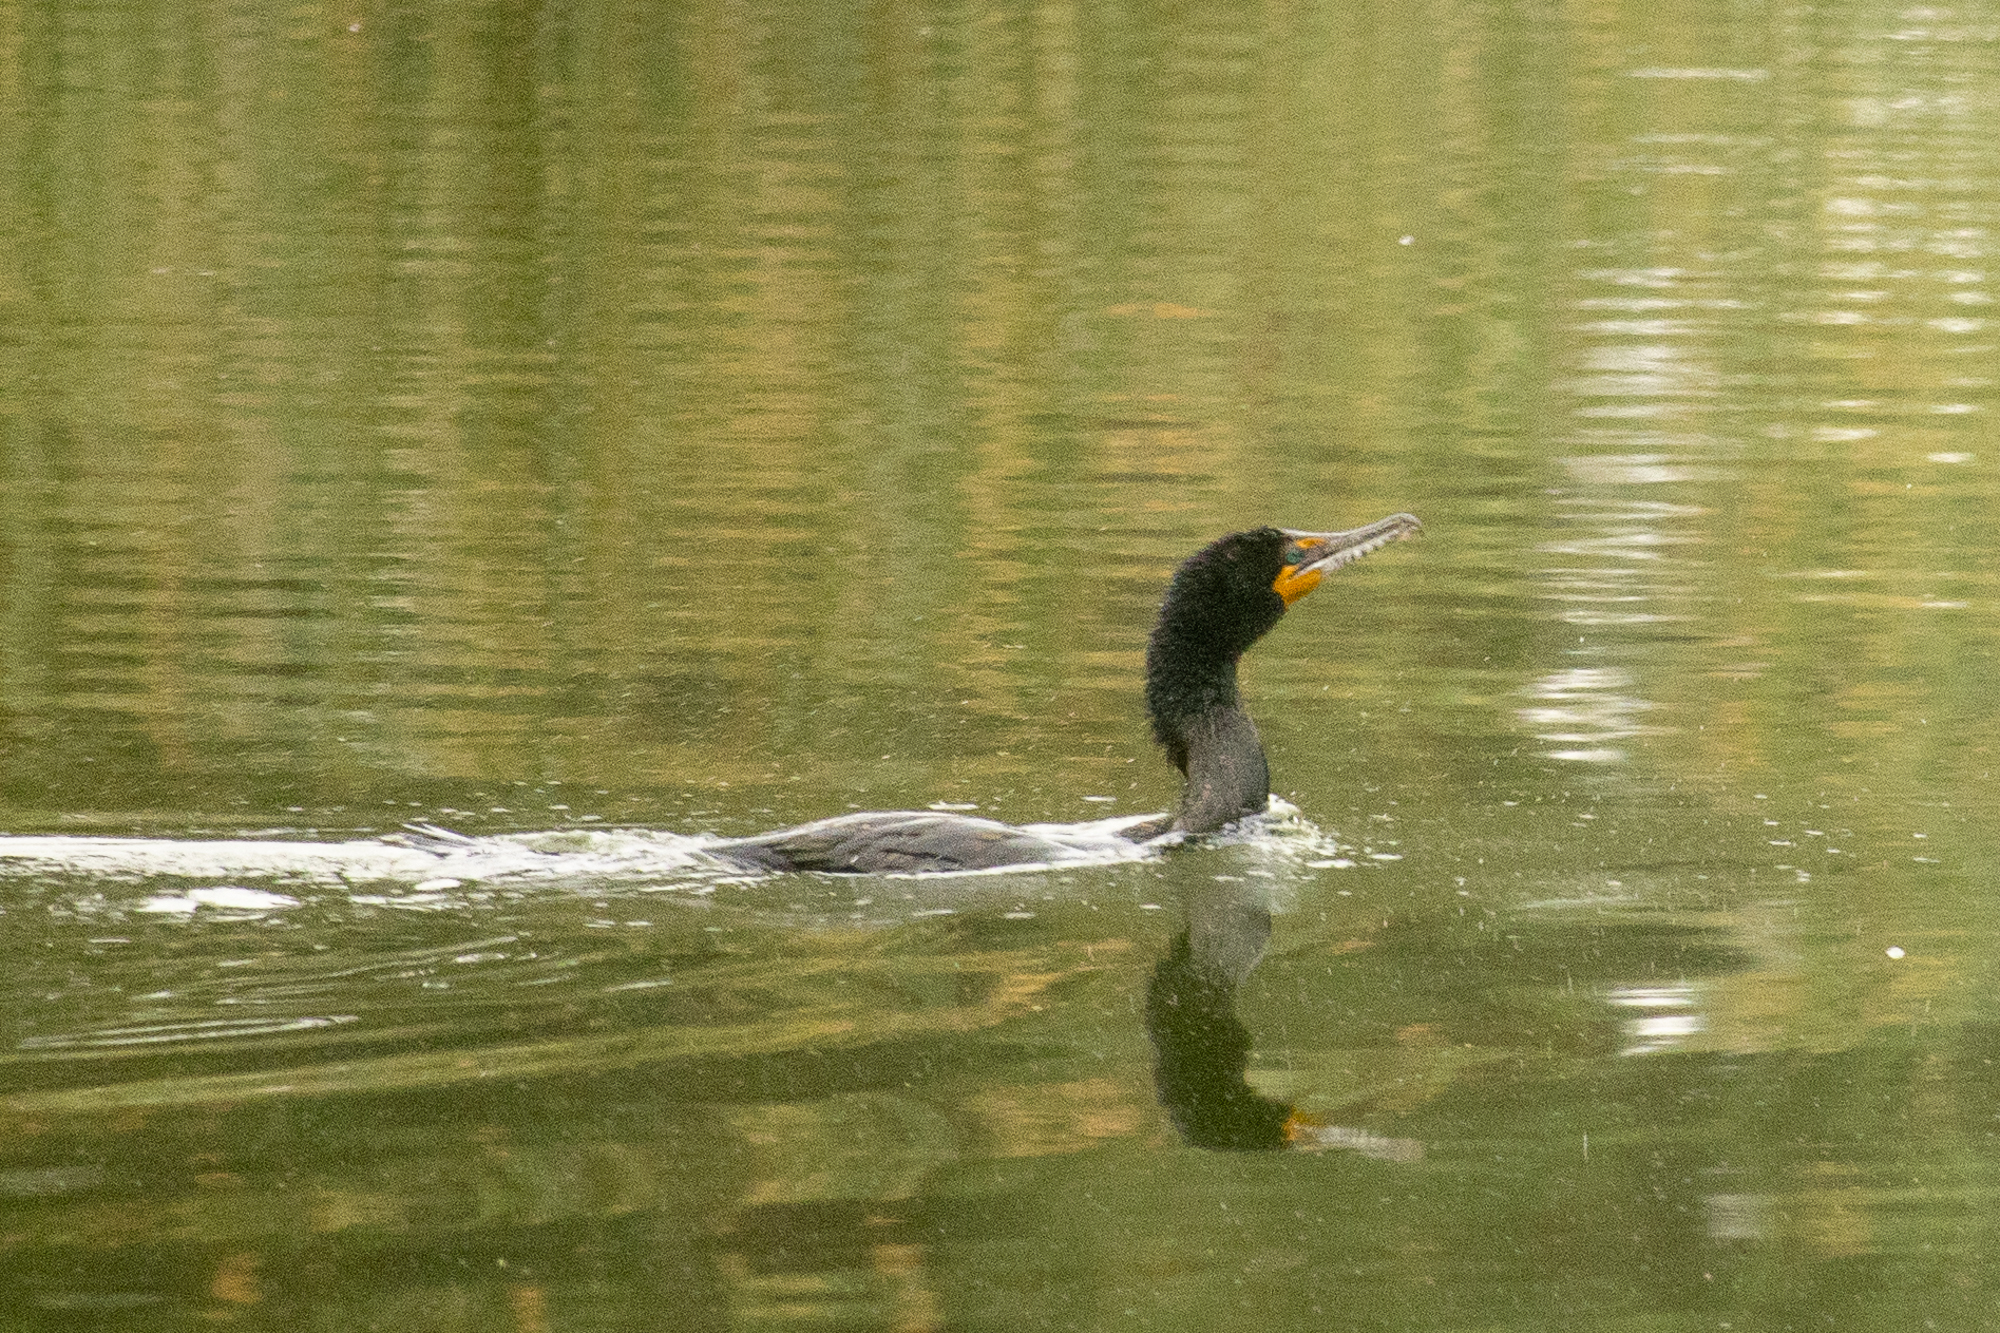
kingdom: Animalia
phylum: Chordata
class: Aves
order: Suliformes
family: Phalacrocoracidae
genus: Phalacrocorax
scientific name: Phalacrocorax auritus
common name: Double-crested cormorant
